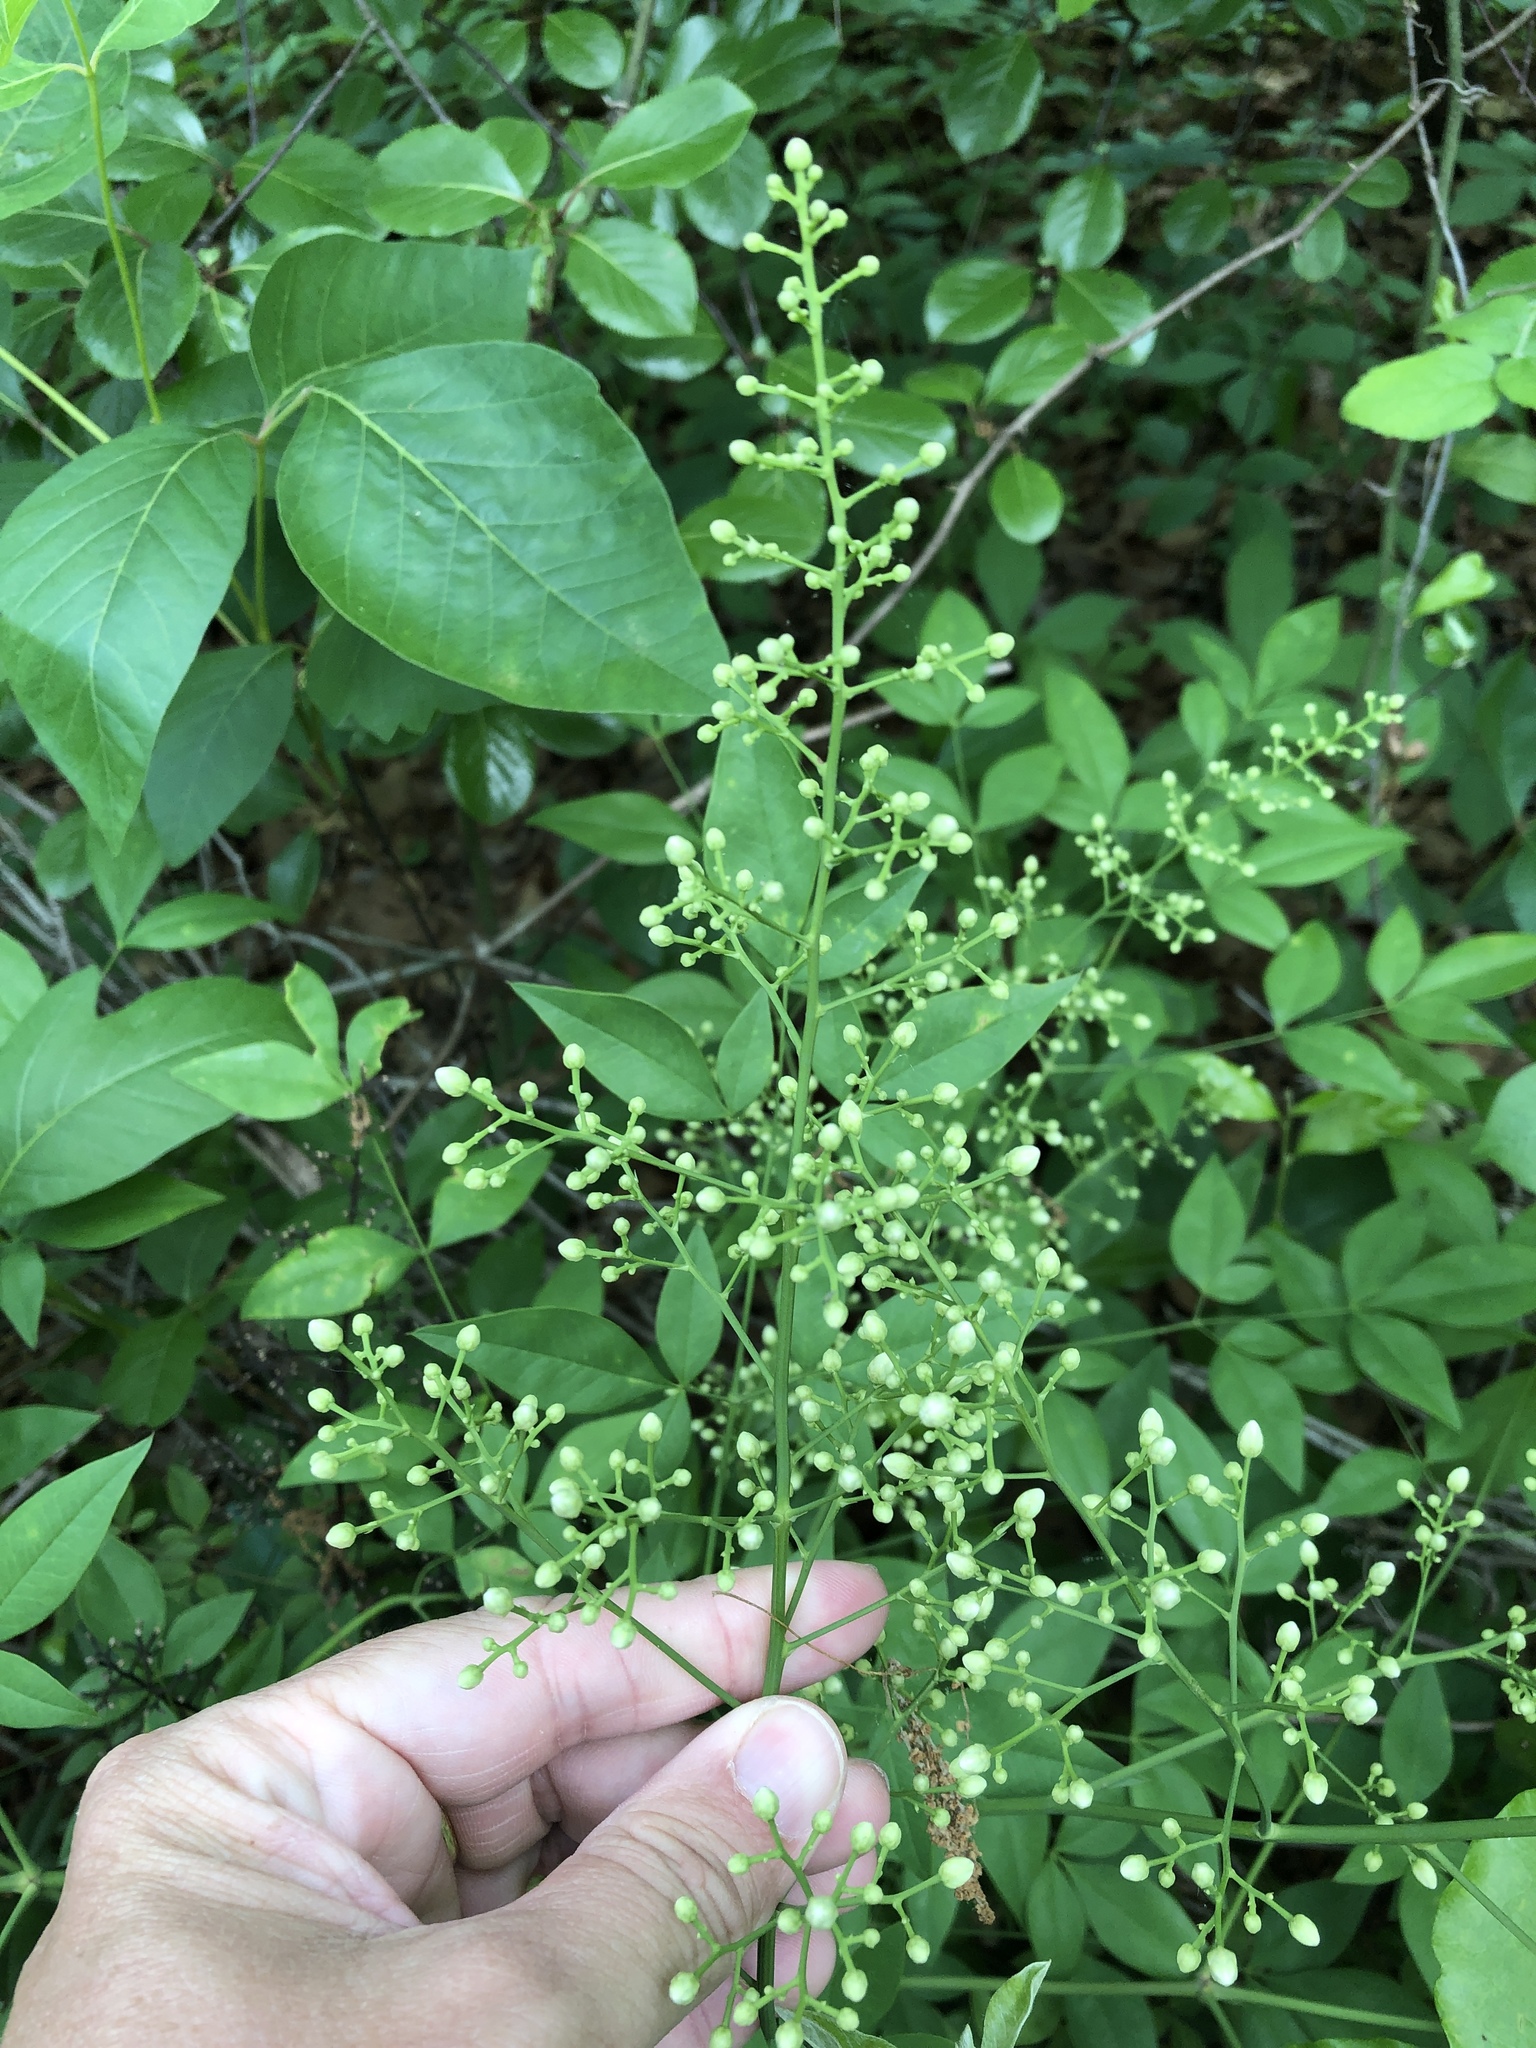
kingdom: Plantae
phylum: Tracheophyta
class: Magnoliopsida
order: Ranunculales
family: Berberidaceae
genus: Nandina
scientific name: Nandina domestica
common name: Sacred bamboo
